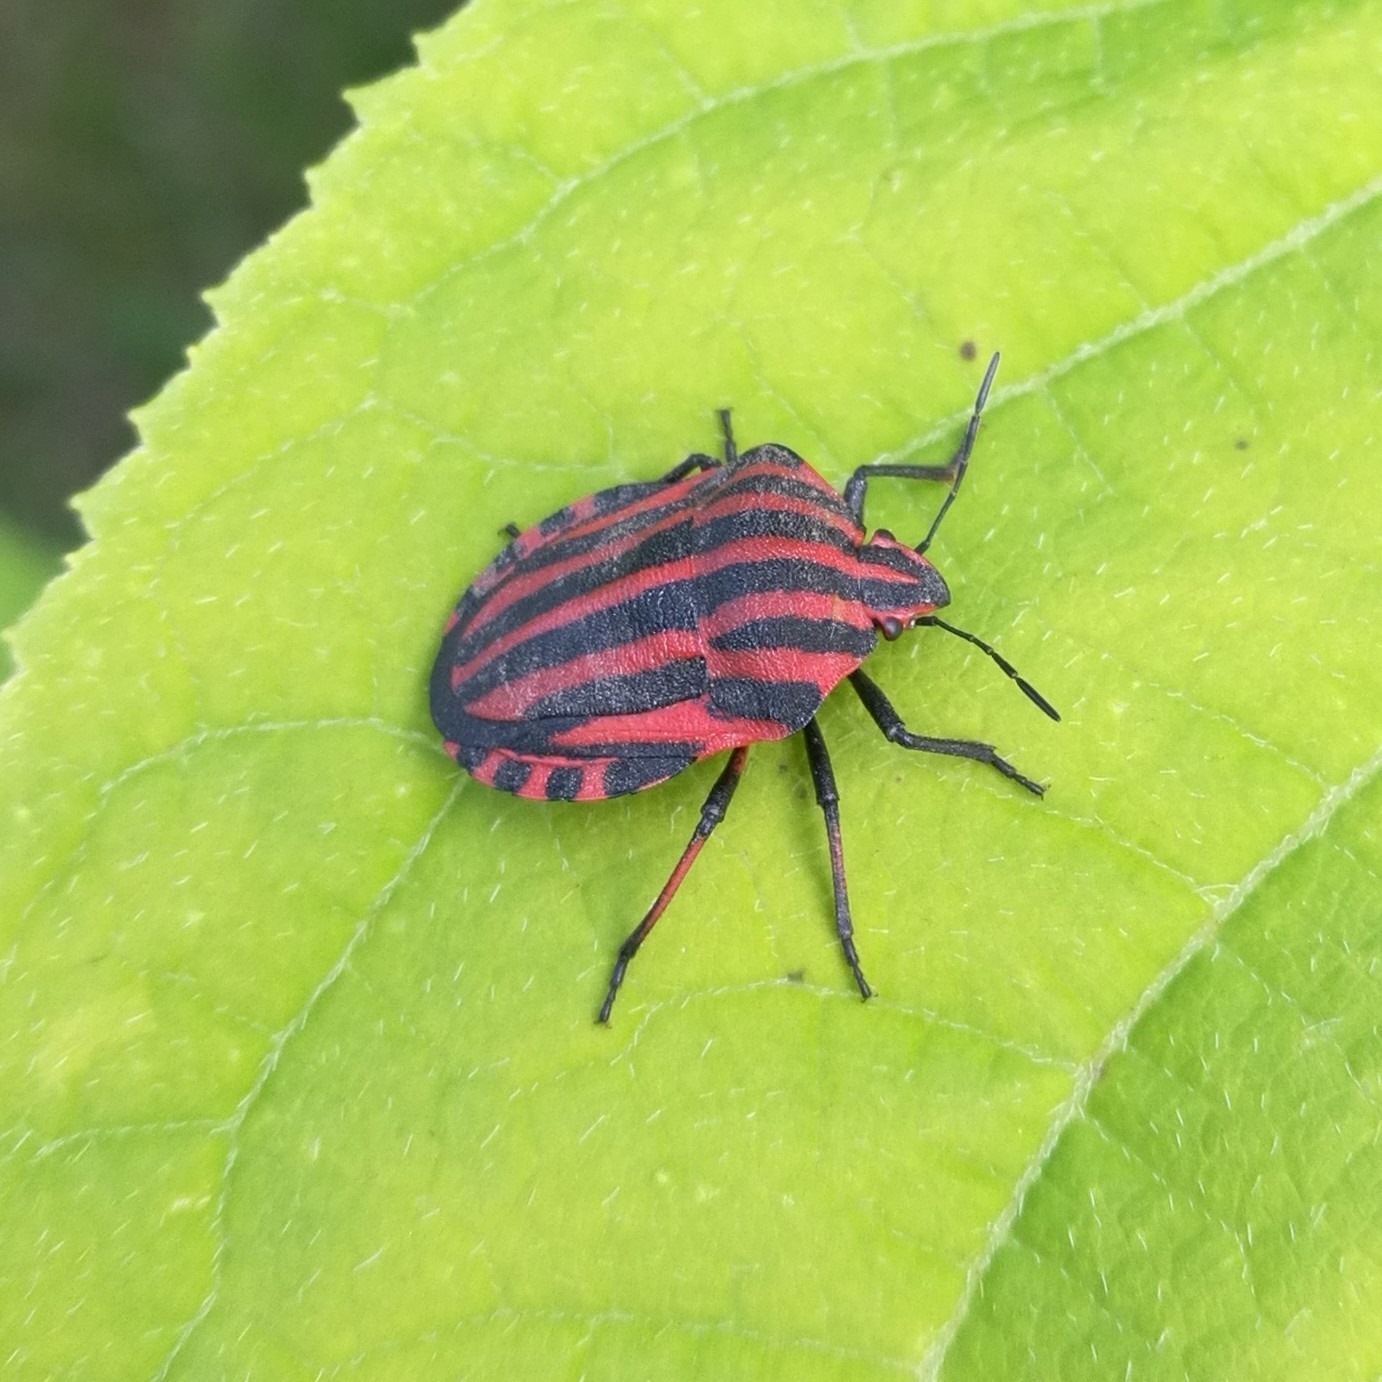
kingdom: Animalia
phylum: Arthropoda
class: Insecta
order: Hemiptera
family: Pentatomidae
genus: Graphosoma
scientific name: Graphosoma italicum
